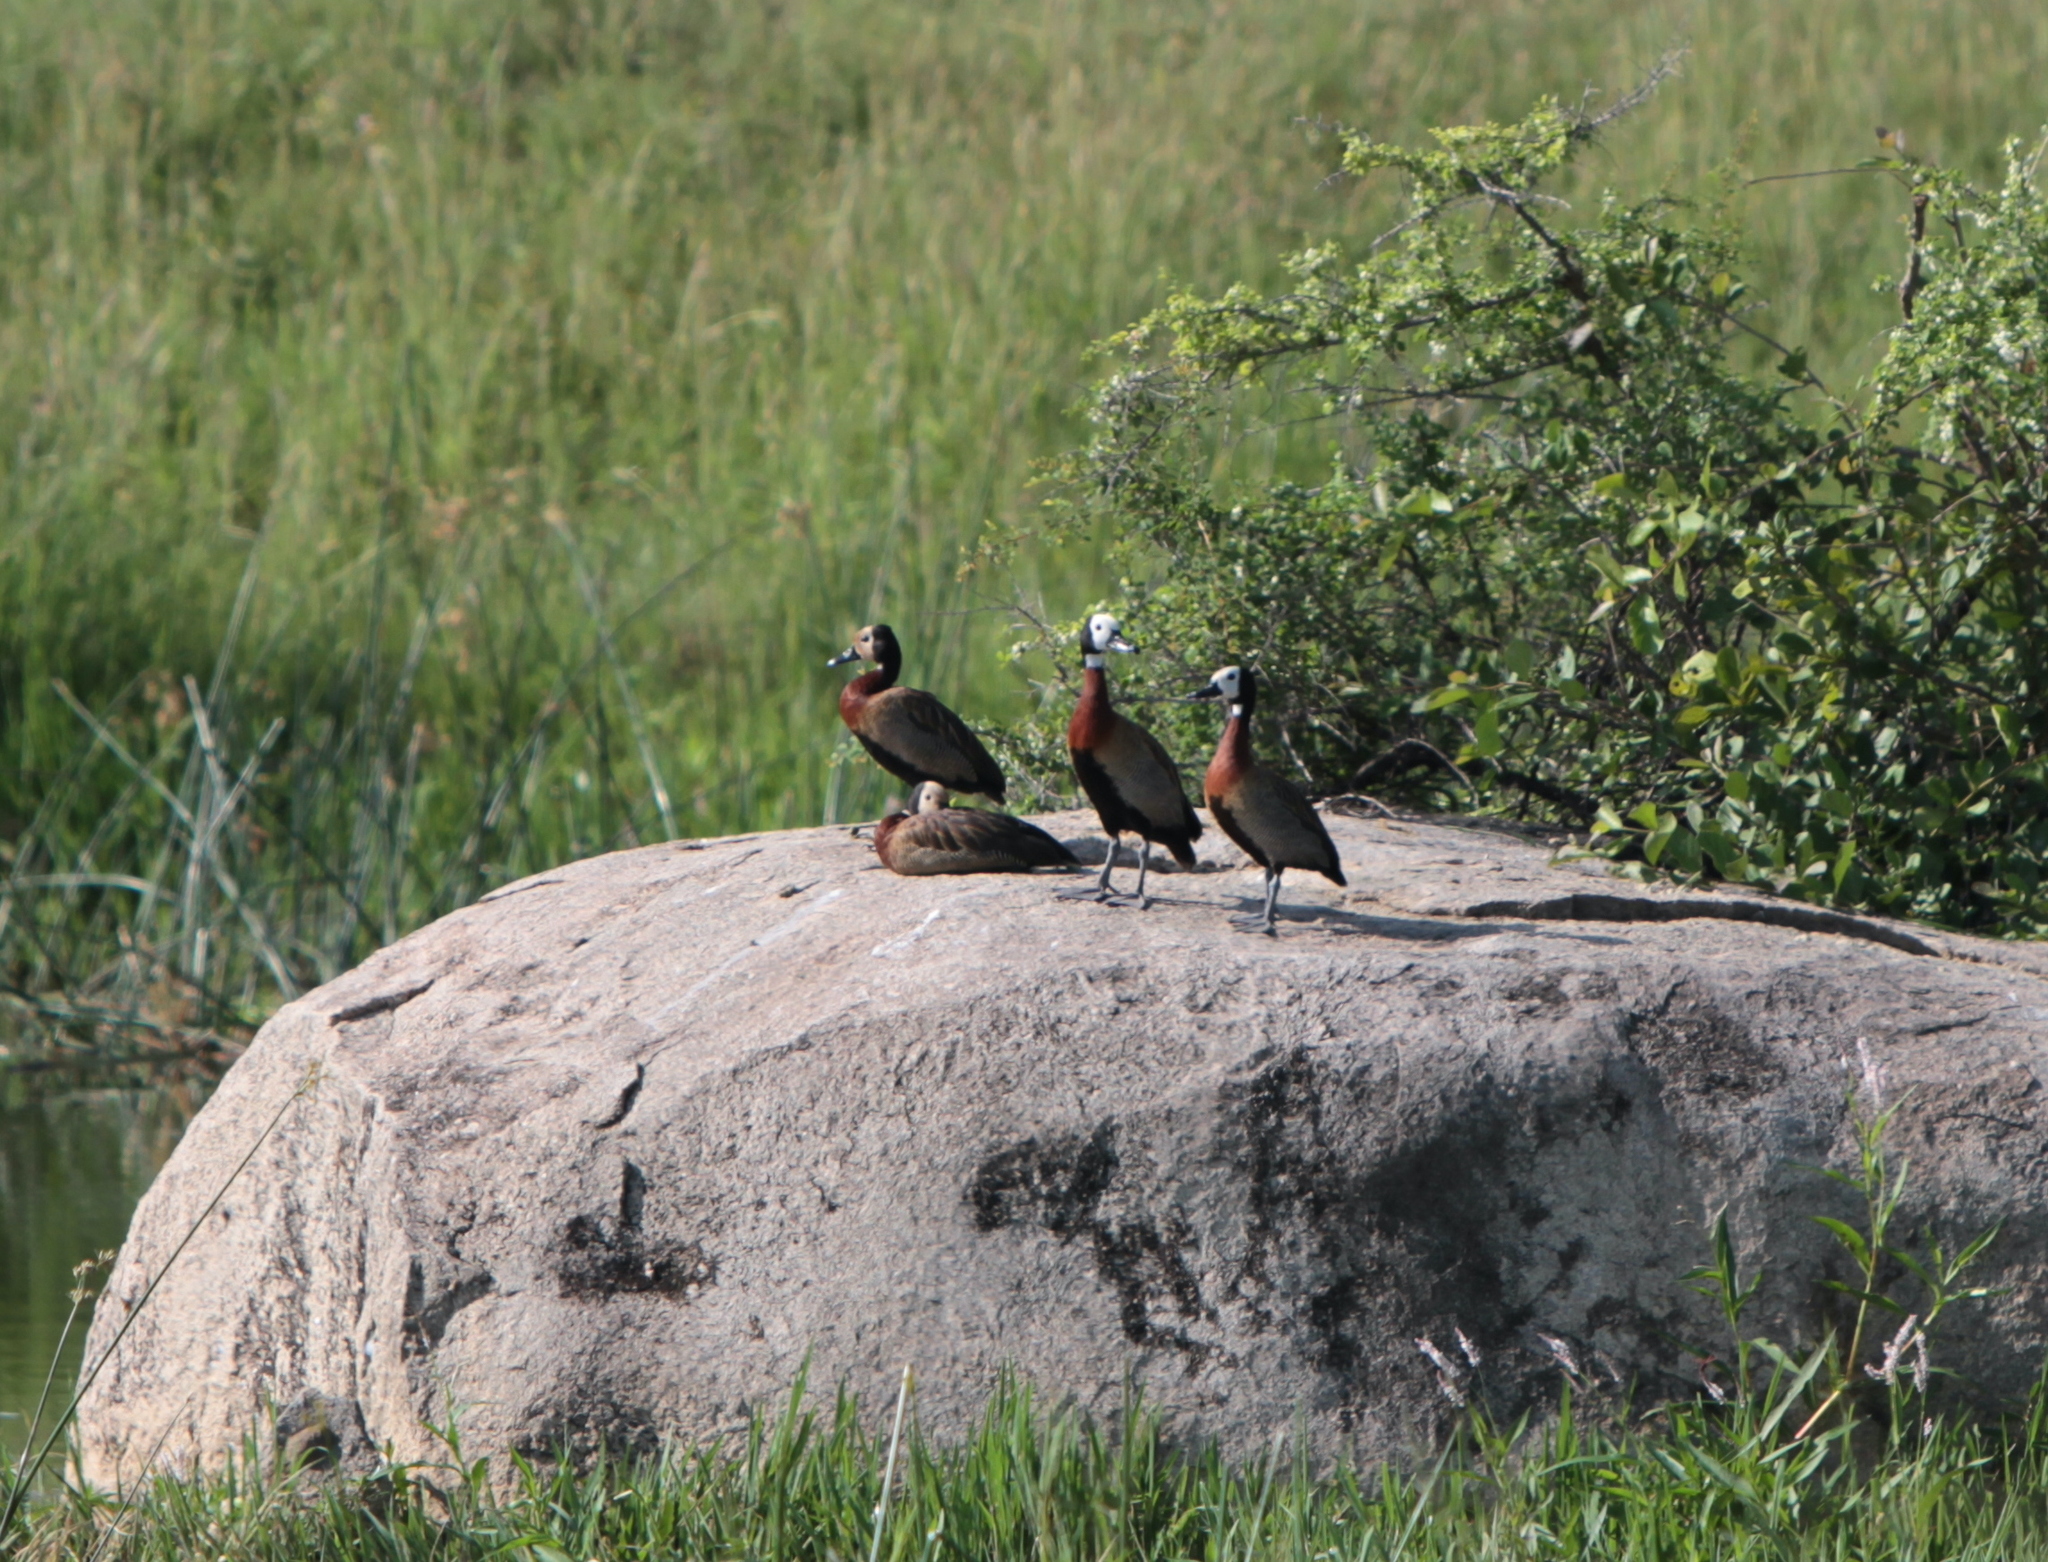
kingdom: Animalia
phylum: Chordata
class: Aves
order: Anseriformes
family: Anatidae
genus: Dendrocygna
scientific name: Dendrocygna viduata
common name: White-faced whistling duck
